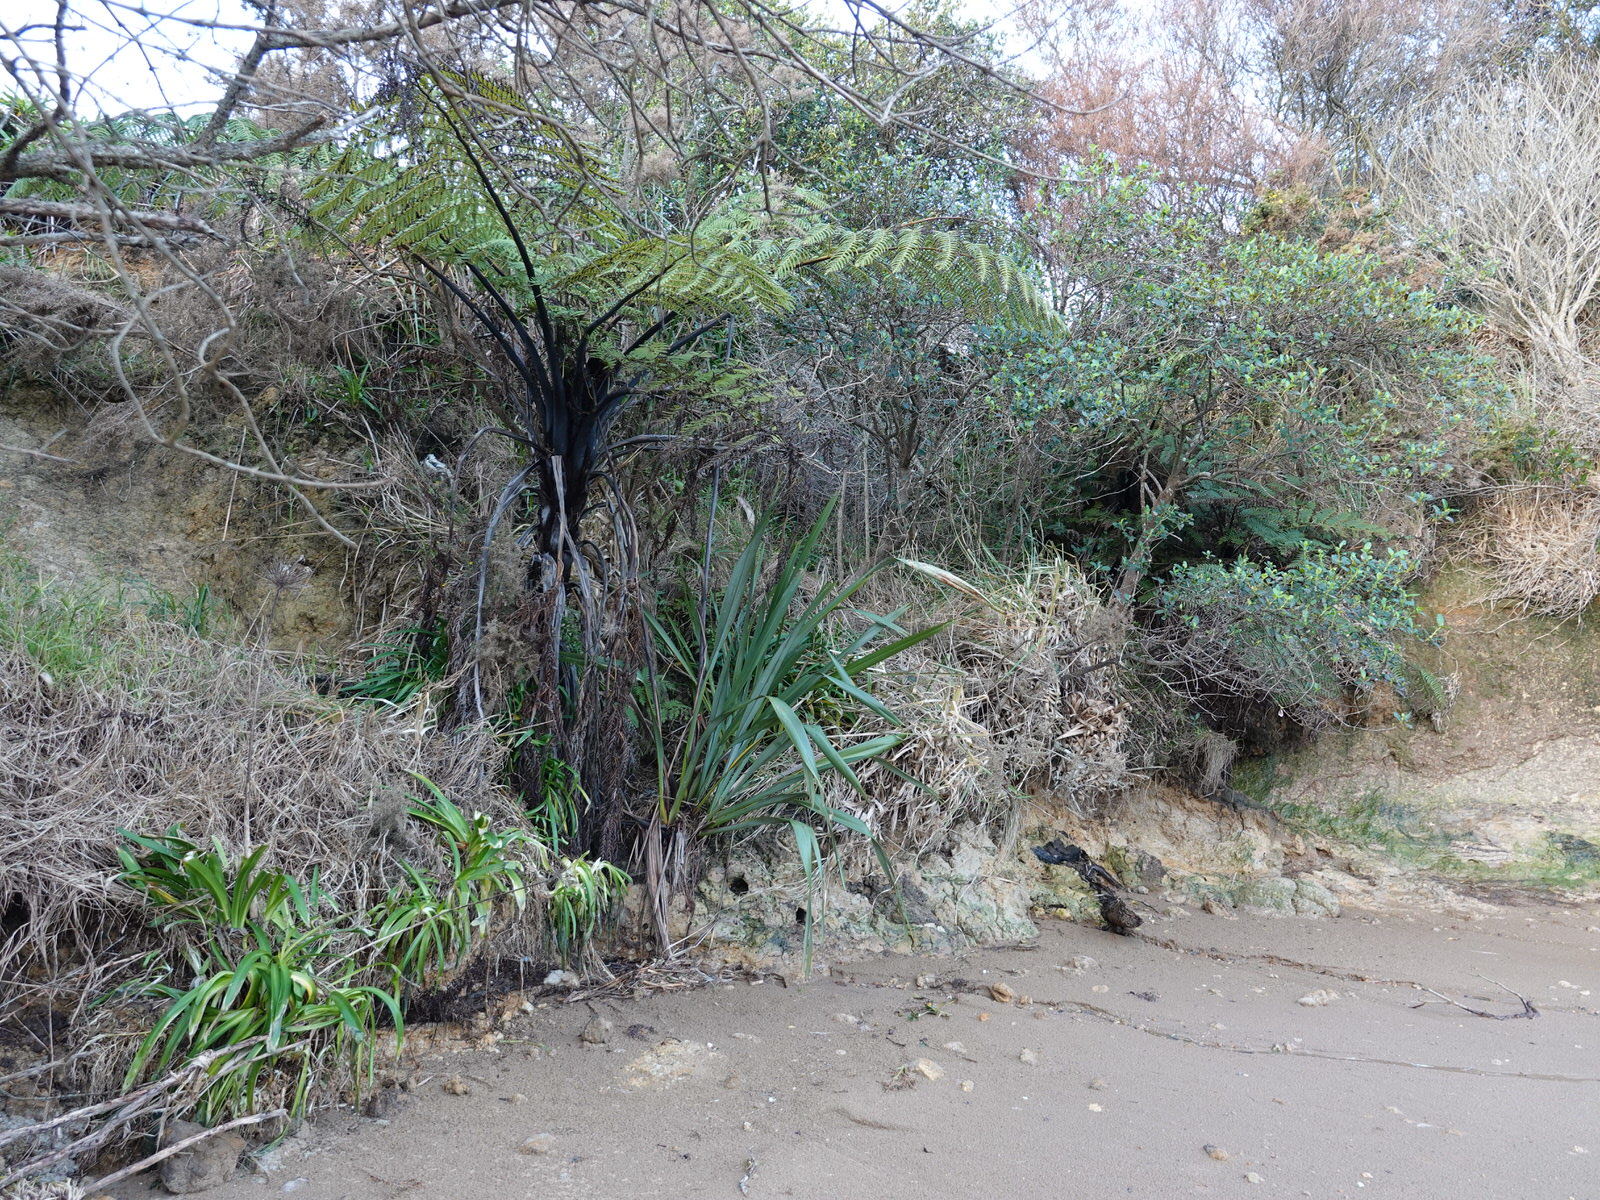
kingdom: Plantae
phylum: Tracheophyta
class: Polypodiopsida
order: Cyatheales
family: Cyatheaceae
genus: Sphaeropteris
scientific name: Sphaeropteris medullaris
